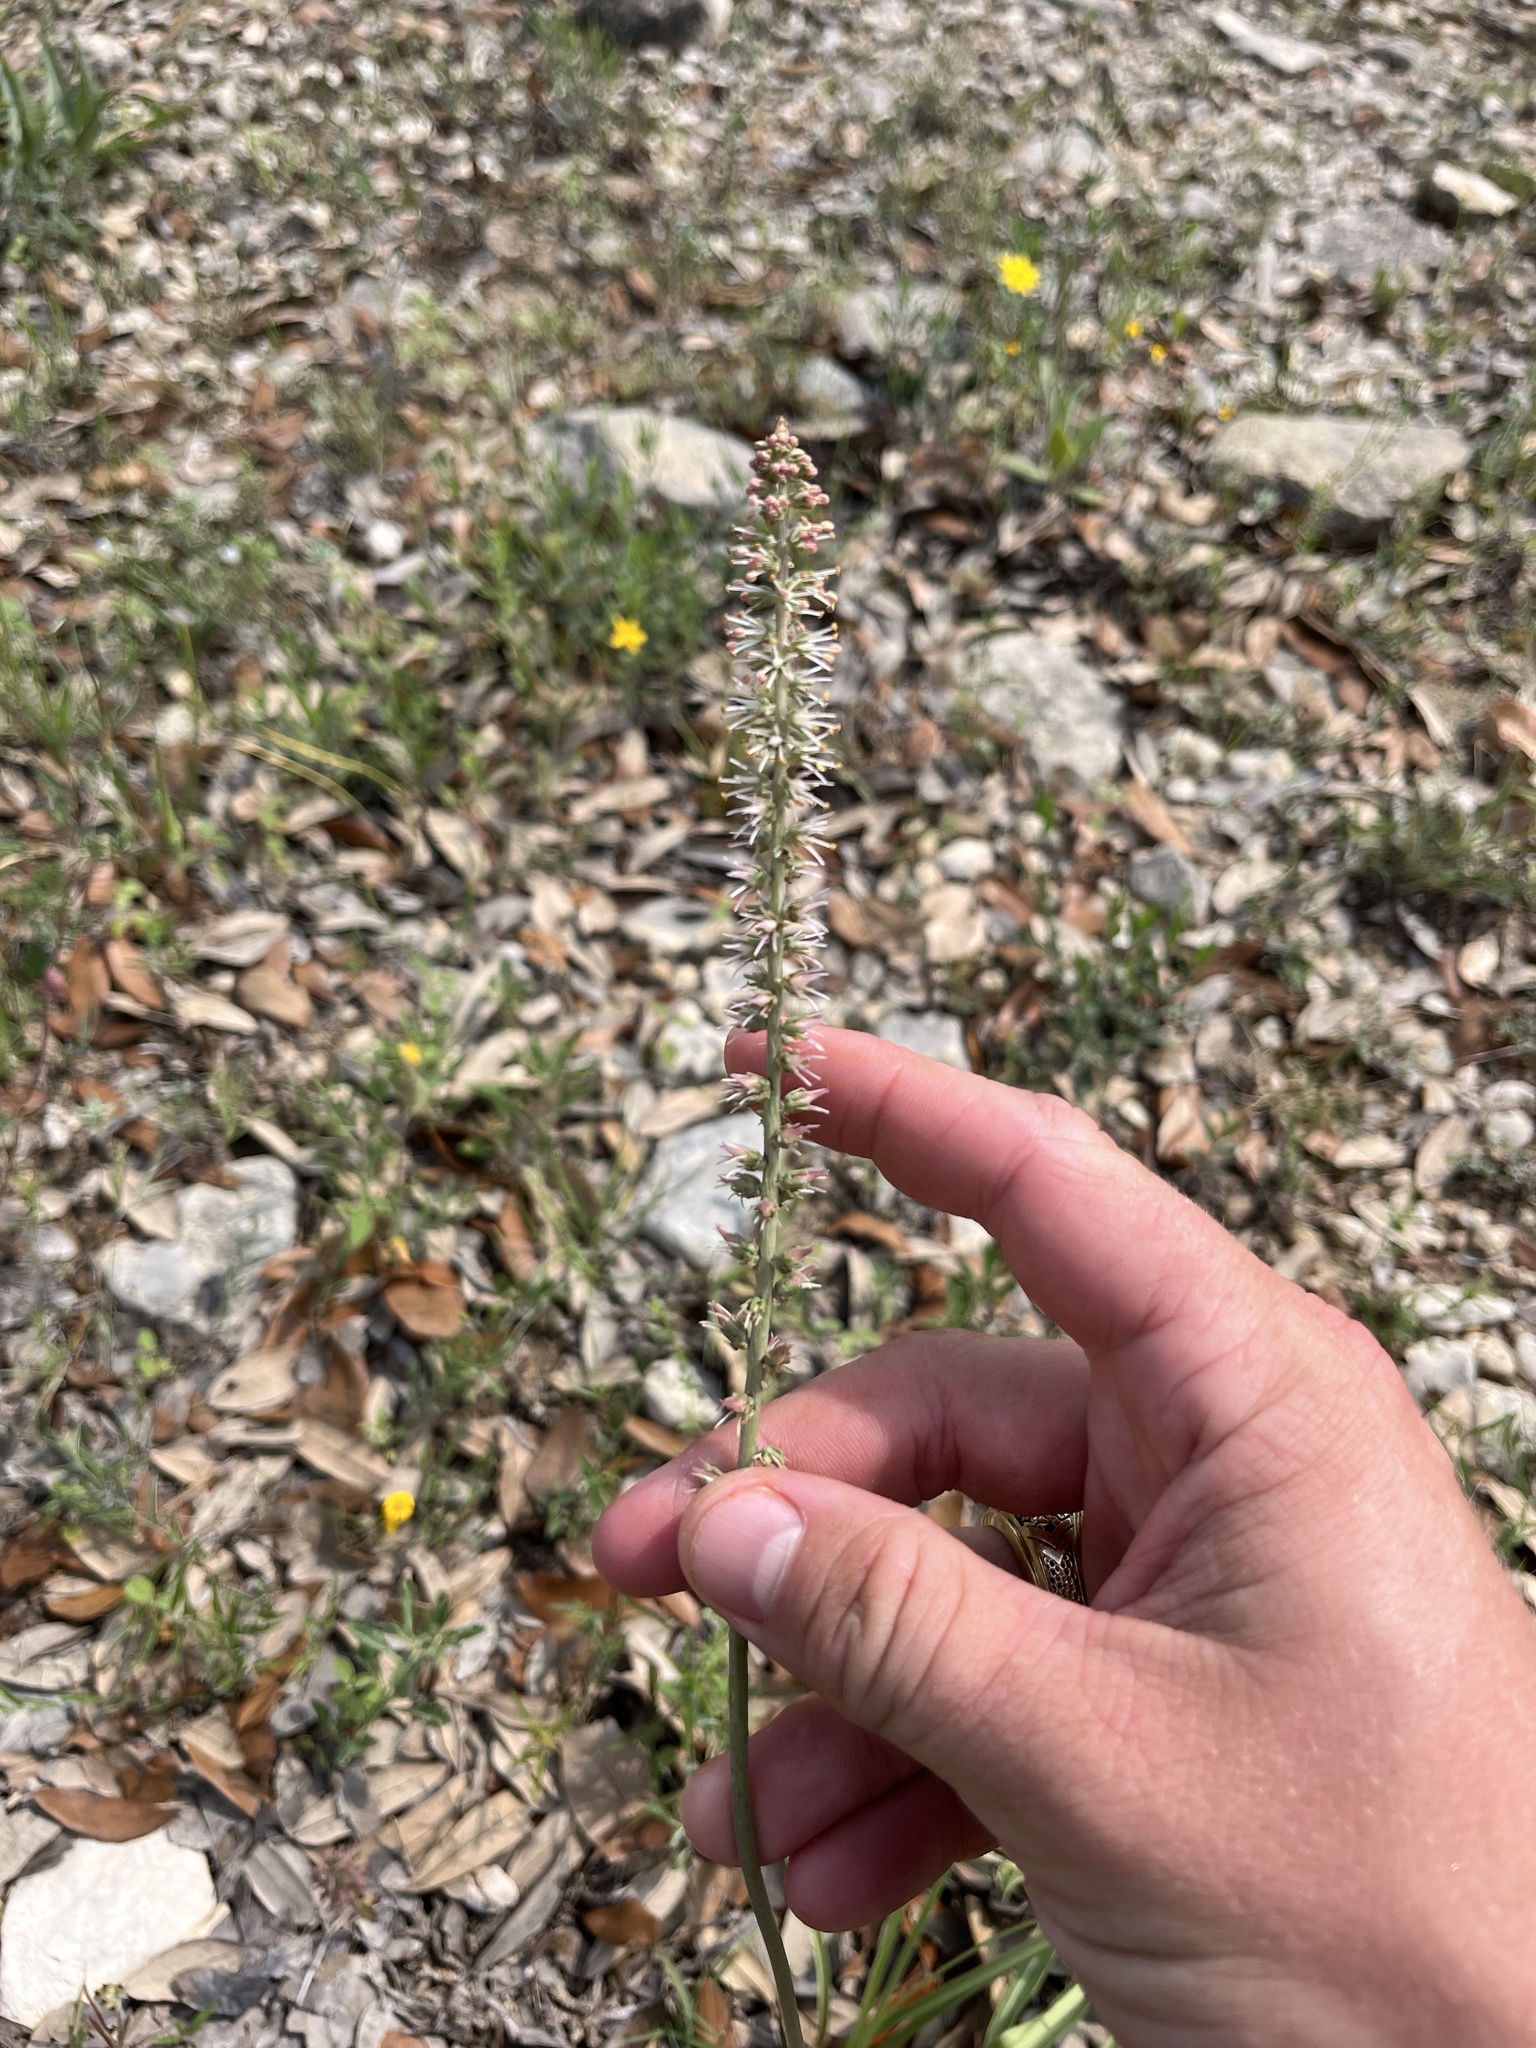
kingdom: Plantae
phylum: Tracheophyta
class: Liliopsida
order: Liliales
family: Melanthiaceae
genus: Schoenocaulon
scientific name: Schoenocaulon texanum
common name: Texas feather-shank
